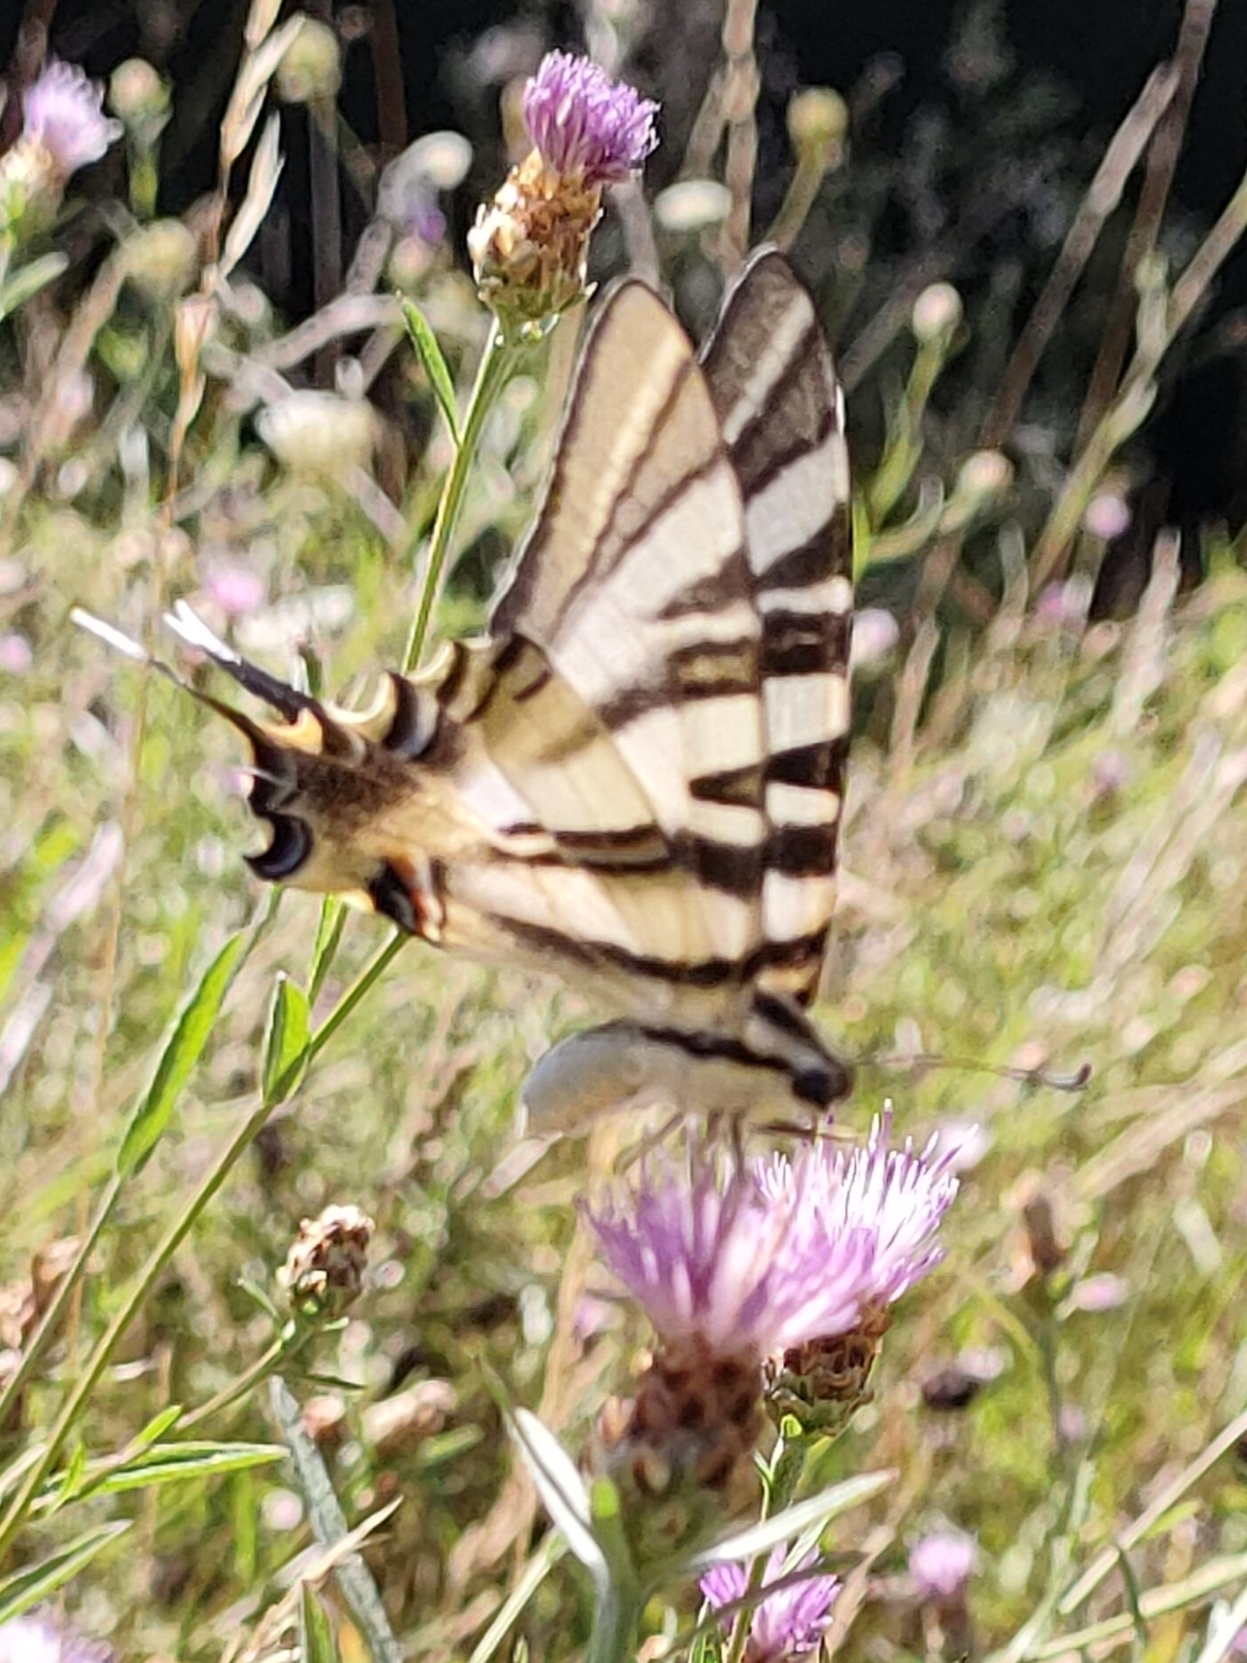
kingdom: Animalia
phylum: Arthropoda
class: Insecta
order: Lepidoptera
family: Papilionidae
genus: Iphiclides
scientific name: Iphiclides feisthamelii
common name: Iberian scarce swallowtail
